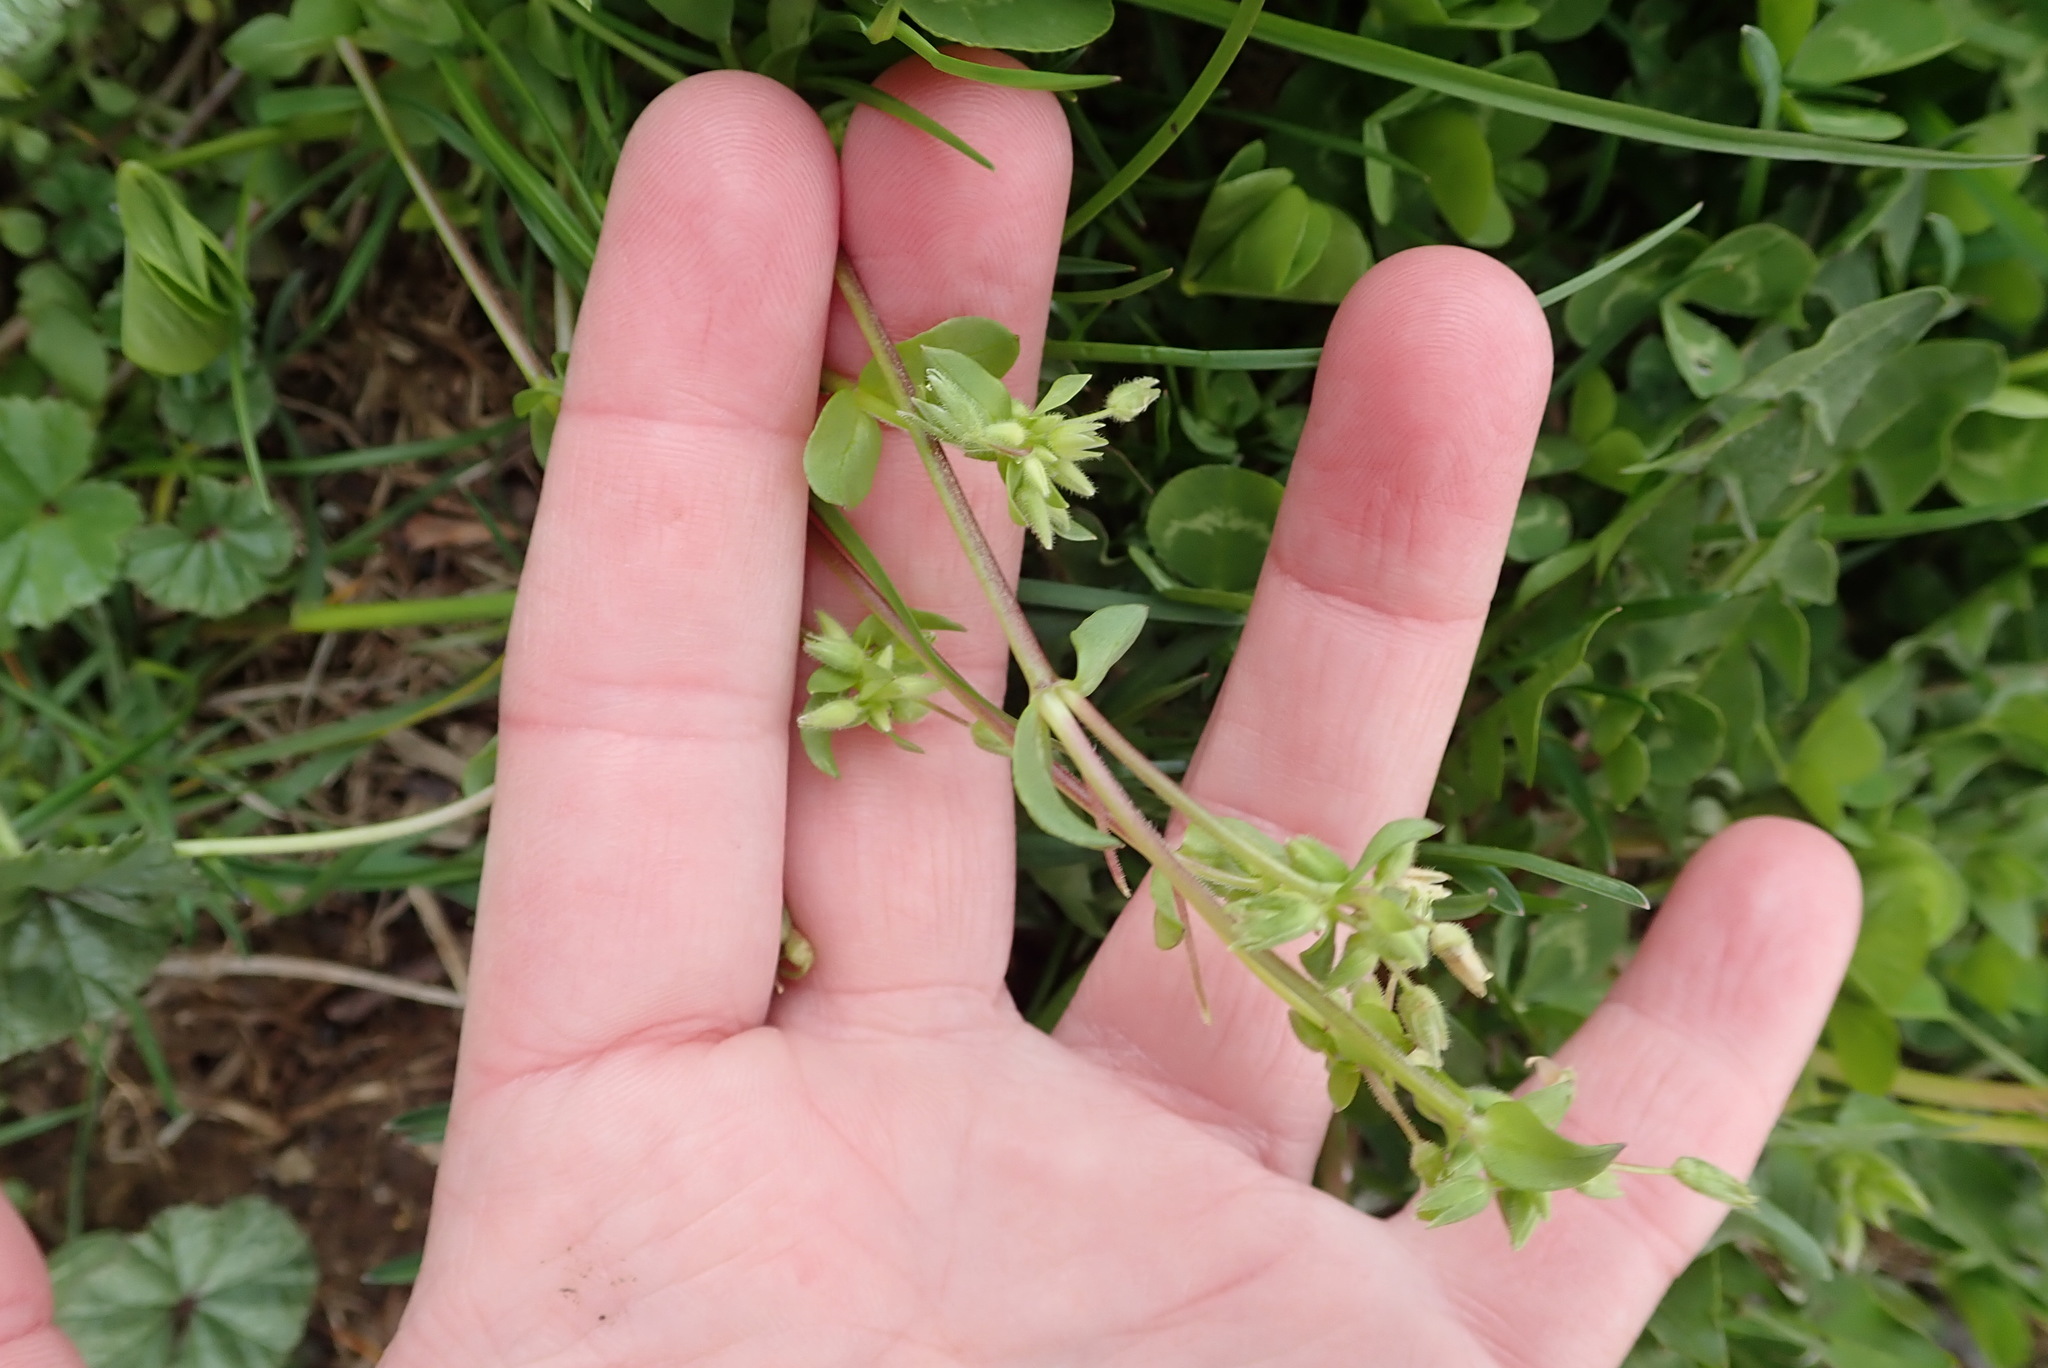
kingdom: Plantae
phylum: Tracheophyta
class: Magnoliopsida
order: Caryophyllales
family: Caryophyllaceae
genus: Stellaria
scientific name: Stellaria media
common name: Common chickweed
